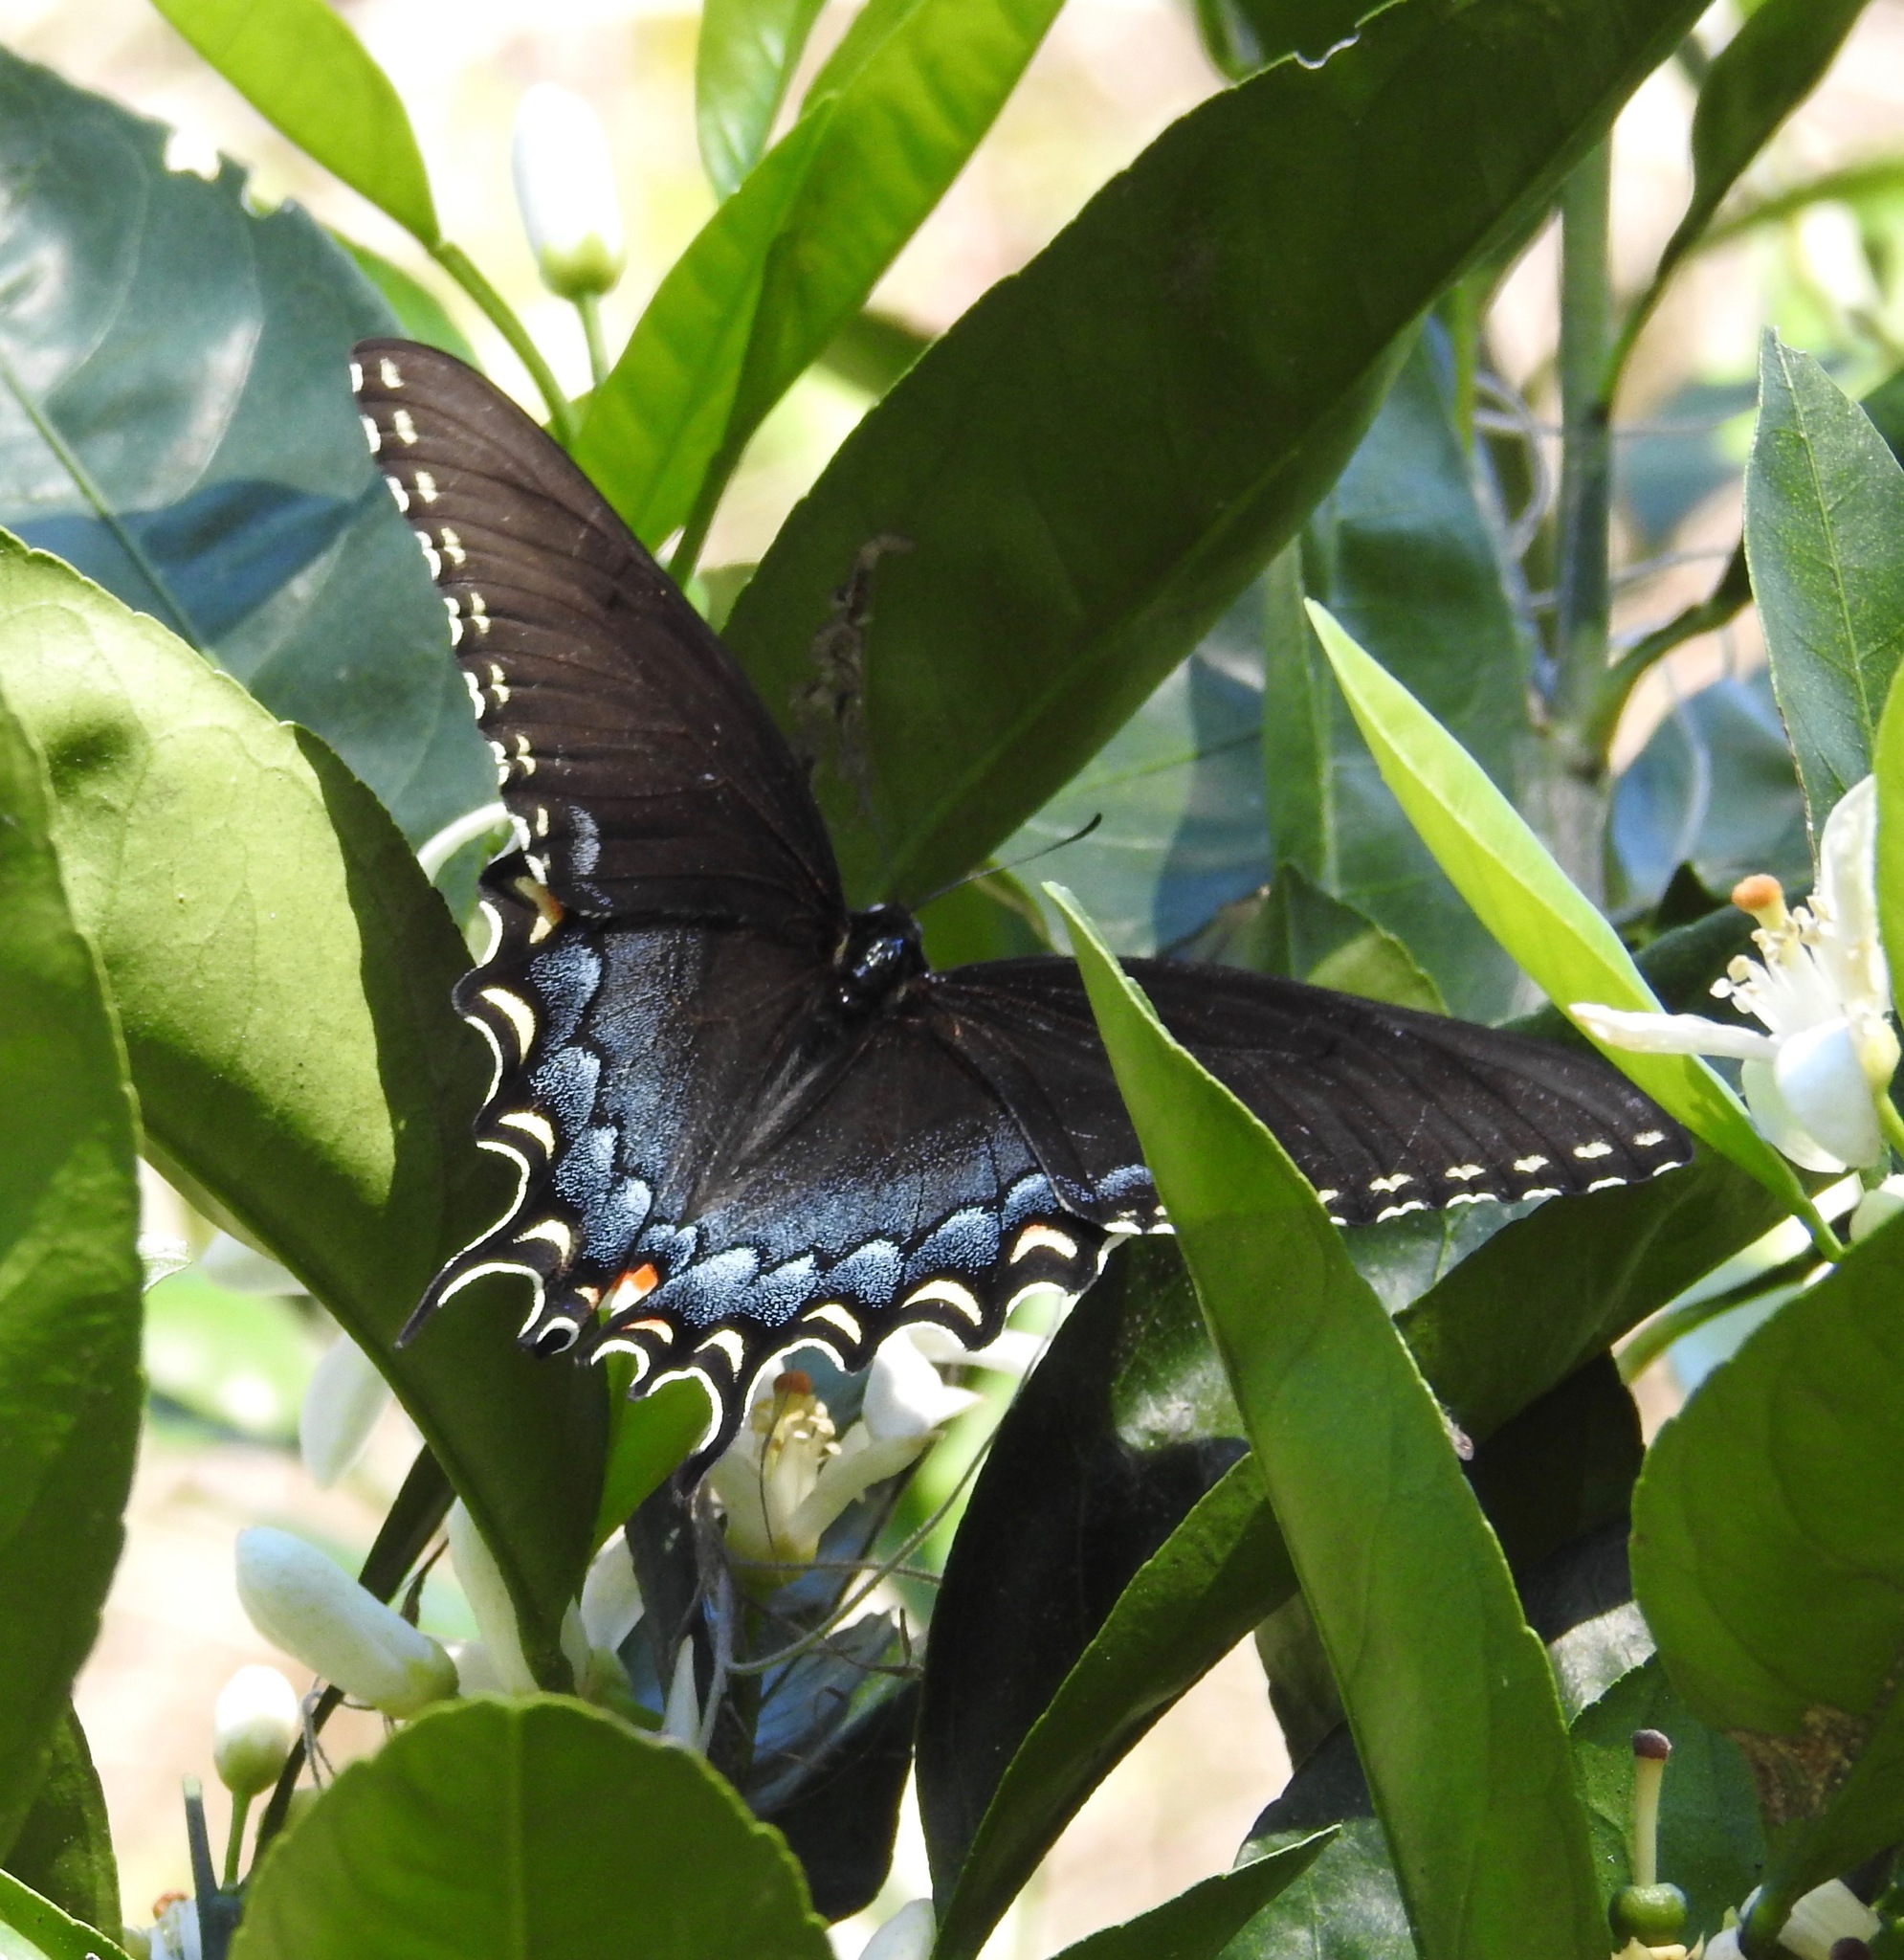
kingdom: Animalia
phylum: Arthropoda
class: Insecta
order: Lepidoptera
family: Papilionidae
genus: Papilio
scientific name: Papilio glaucus
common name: Tiger swallowtail
